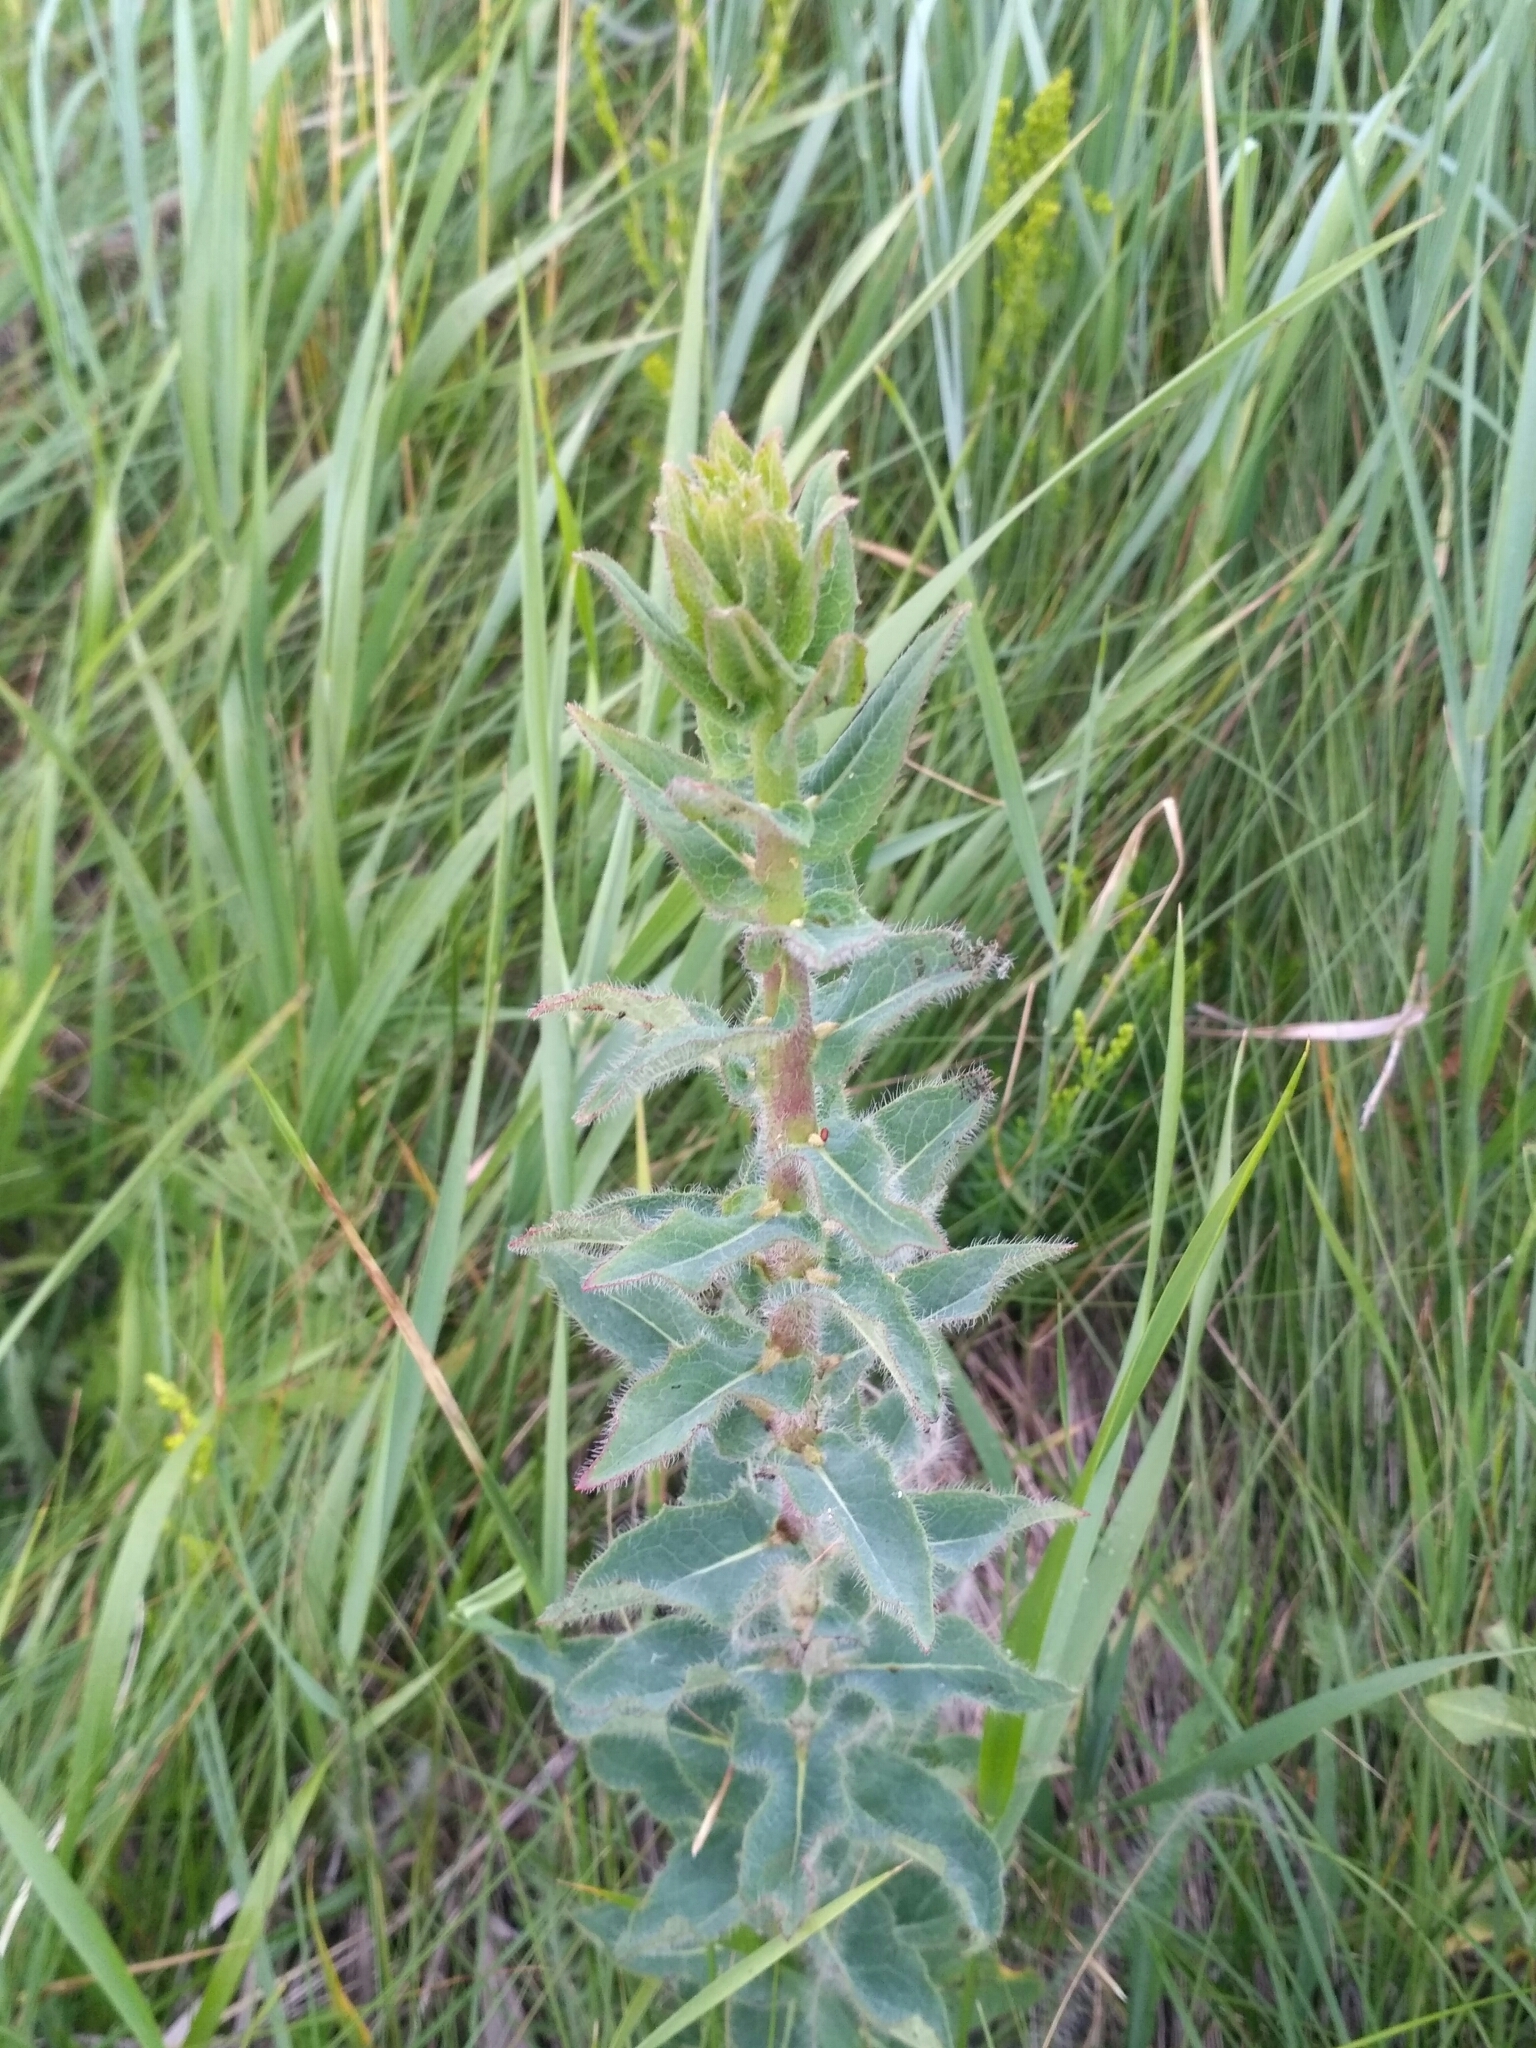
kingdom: Plantae
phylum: Tracheophyta
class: Magnoliopsida
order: Asterales
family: Asteraceae
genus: Hieracium
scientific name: Hieracium virosum
